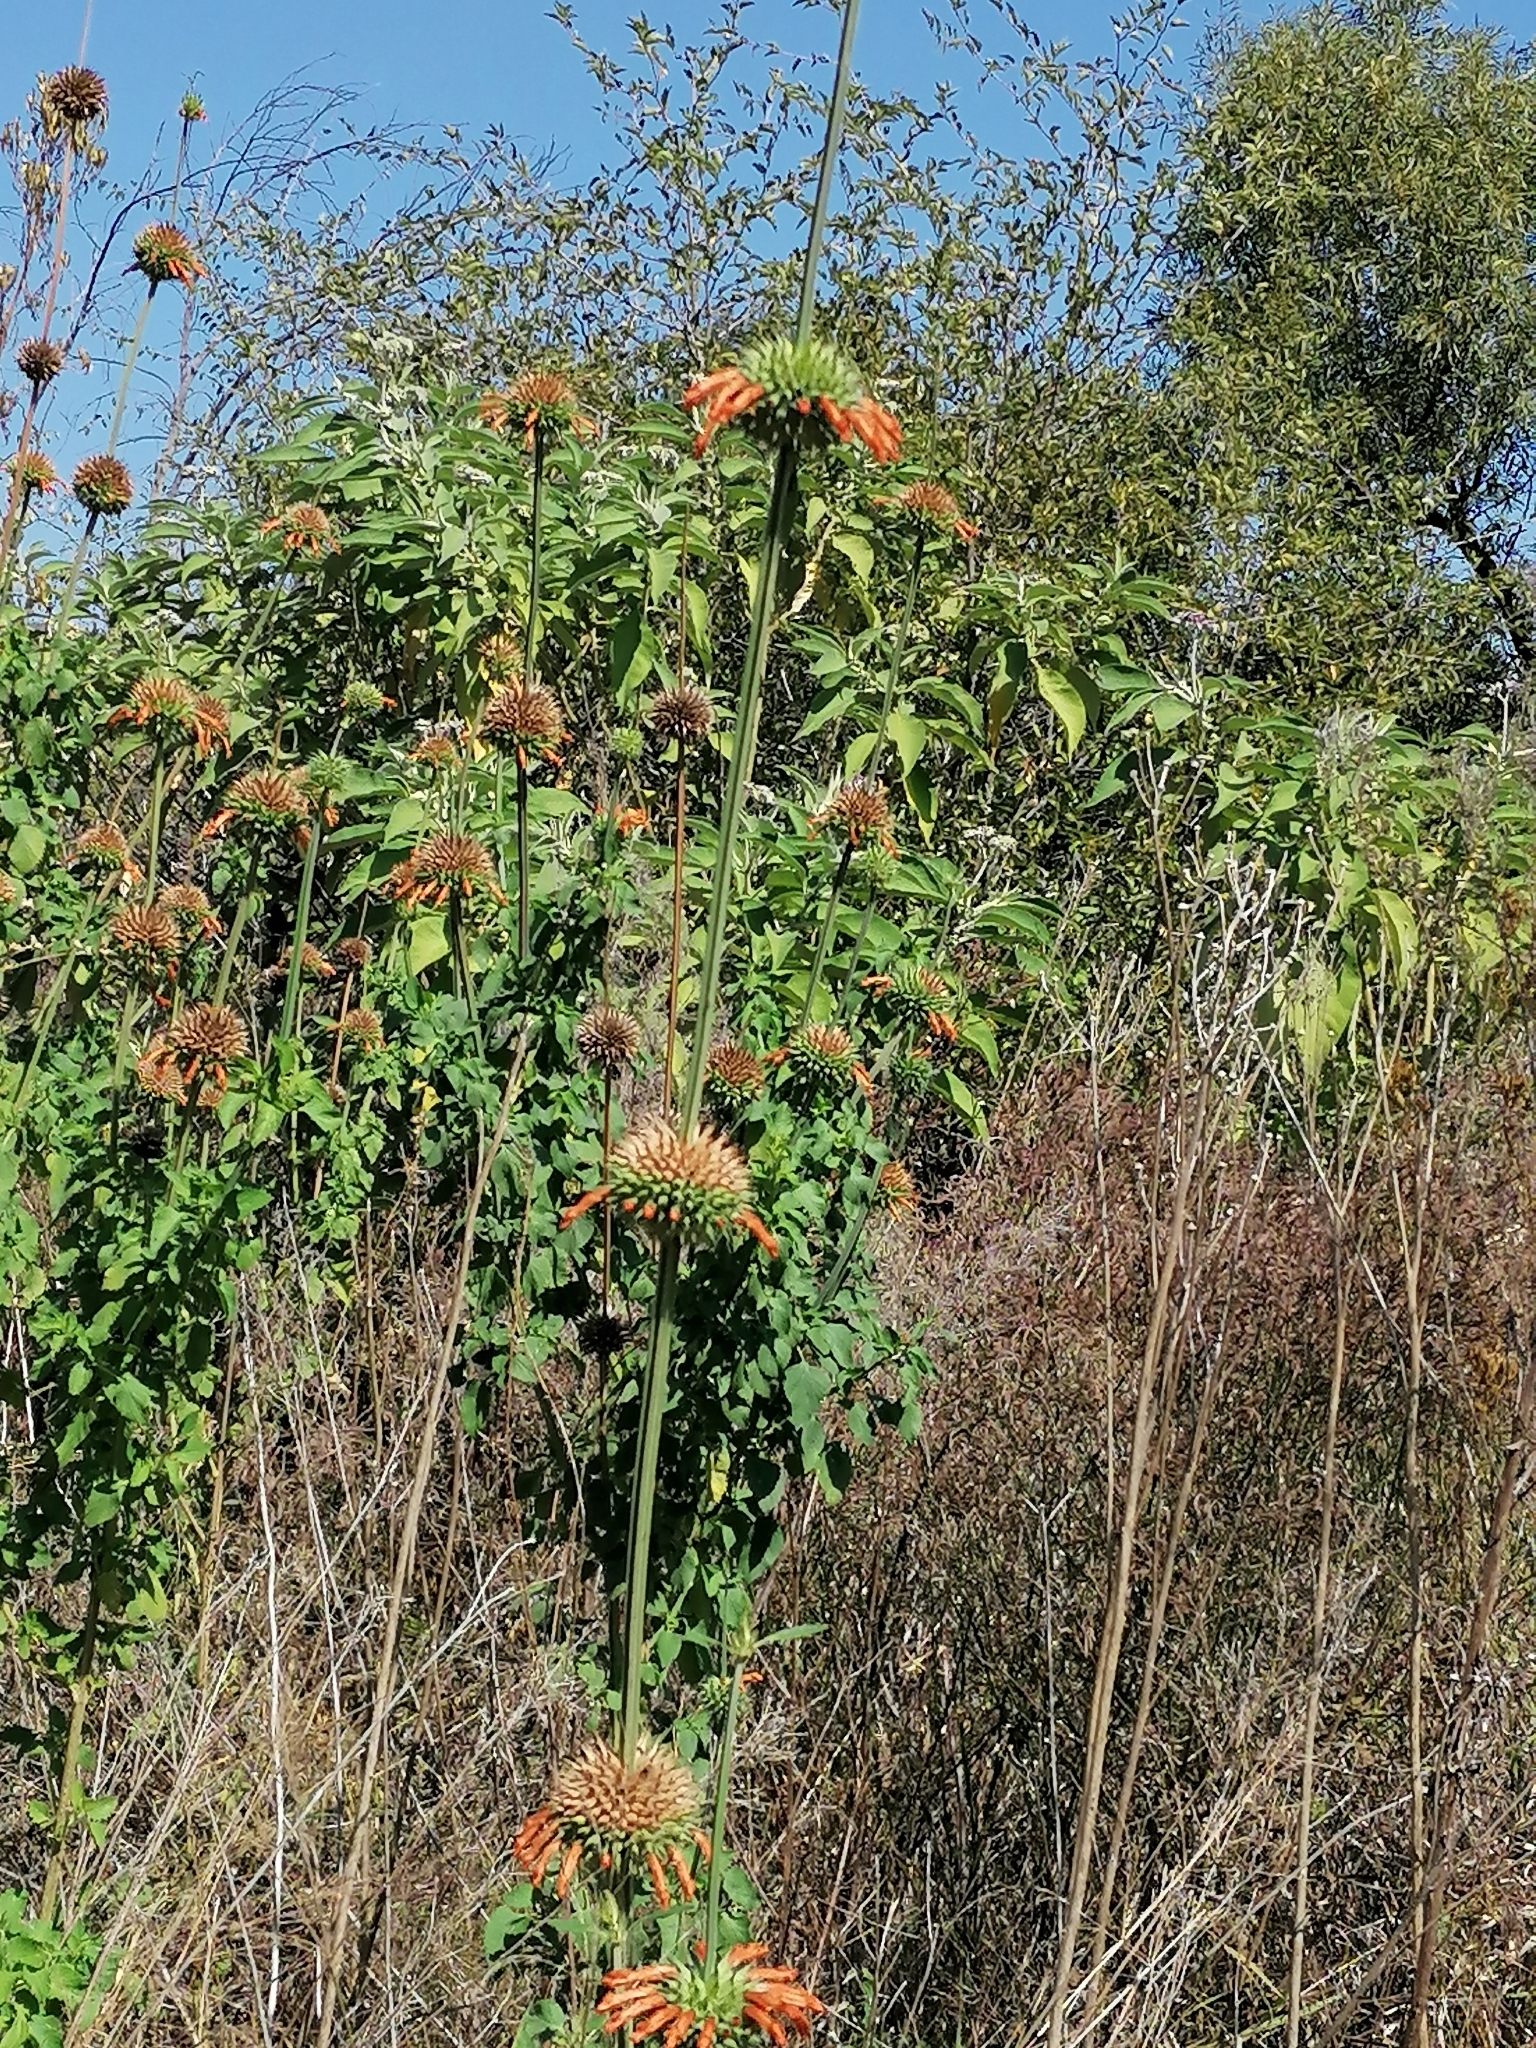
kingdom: Plantae
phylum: Tracheophyta
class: Magnoliopsida
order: Lamiales
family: Lamiaceae
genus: Leonotis
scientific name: Leonotis nepetifolia
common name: Christmas candlestick
